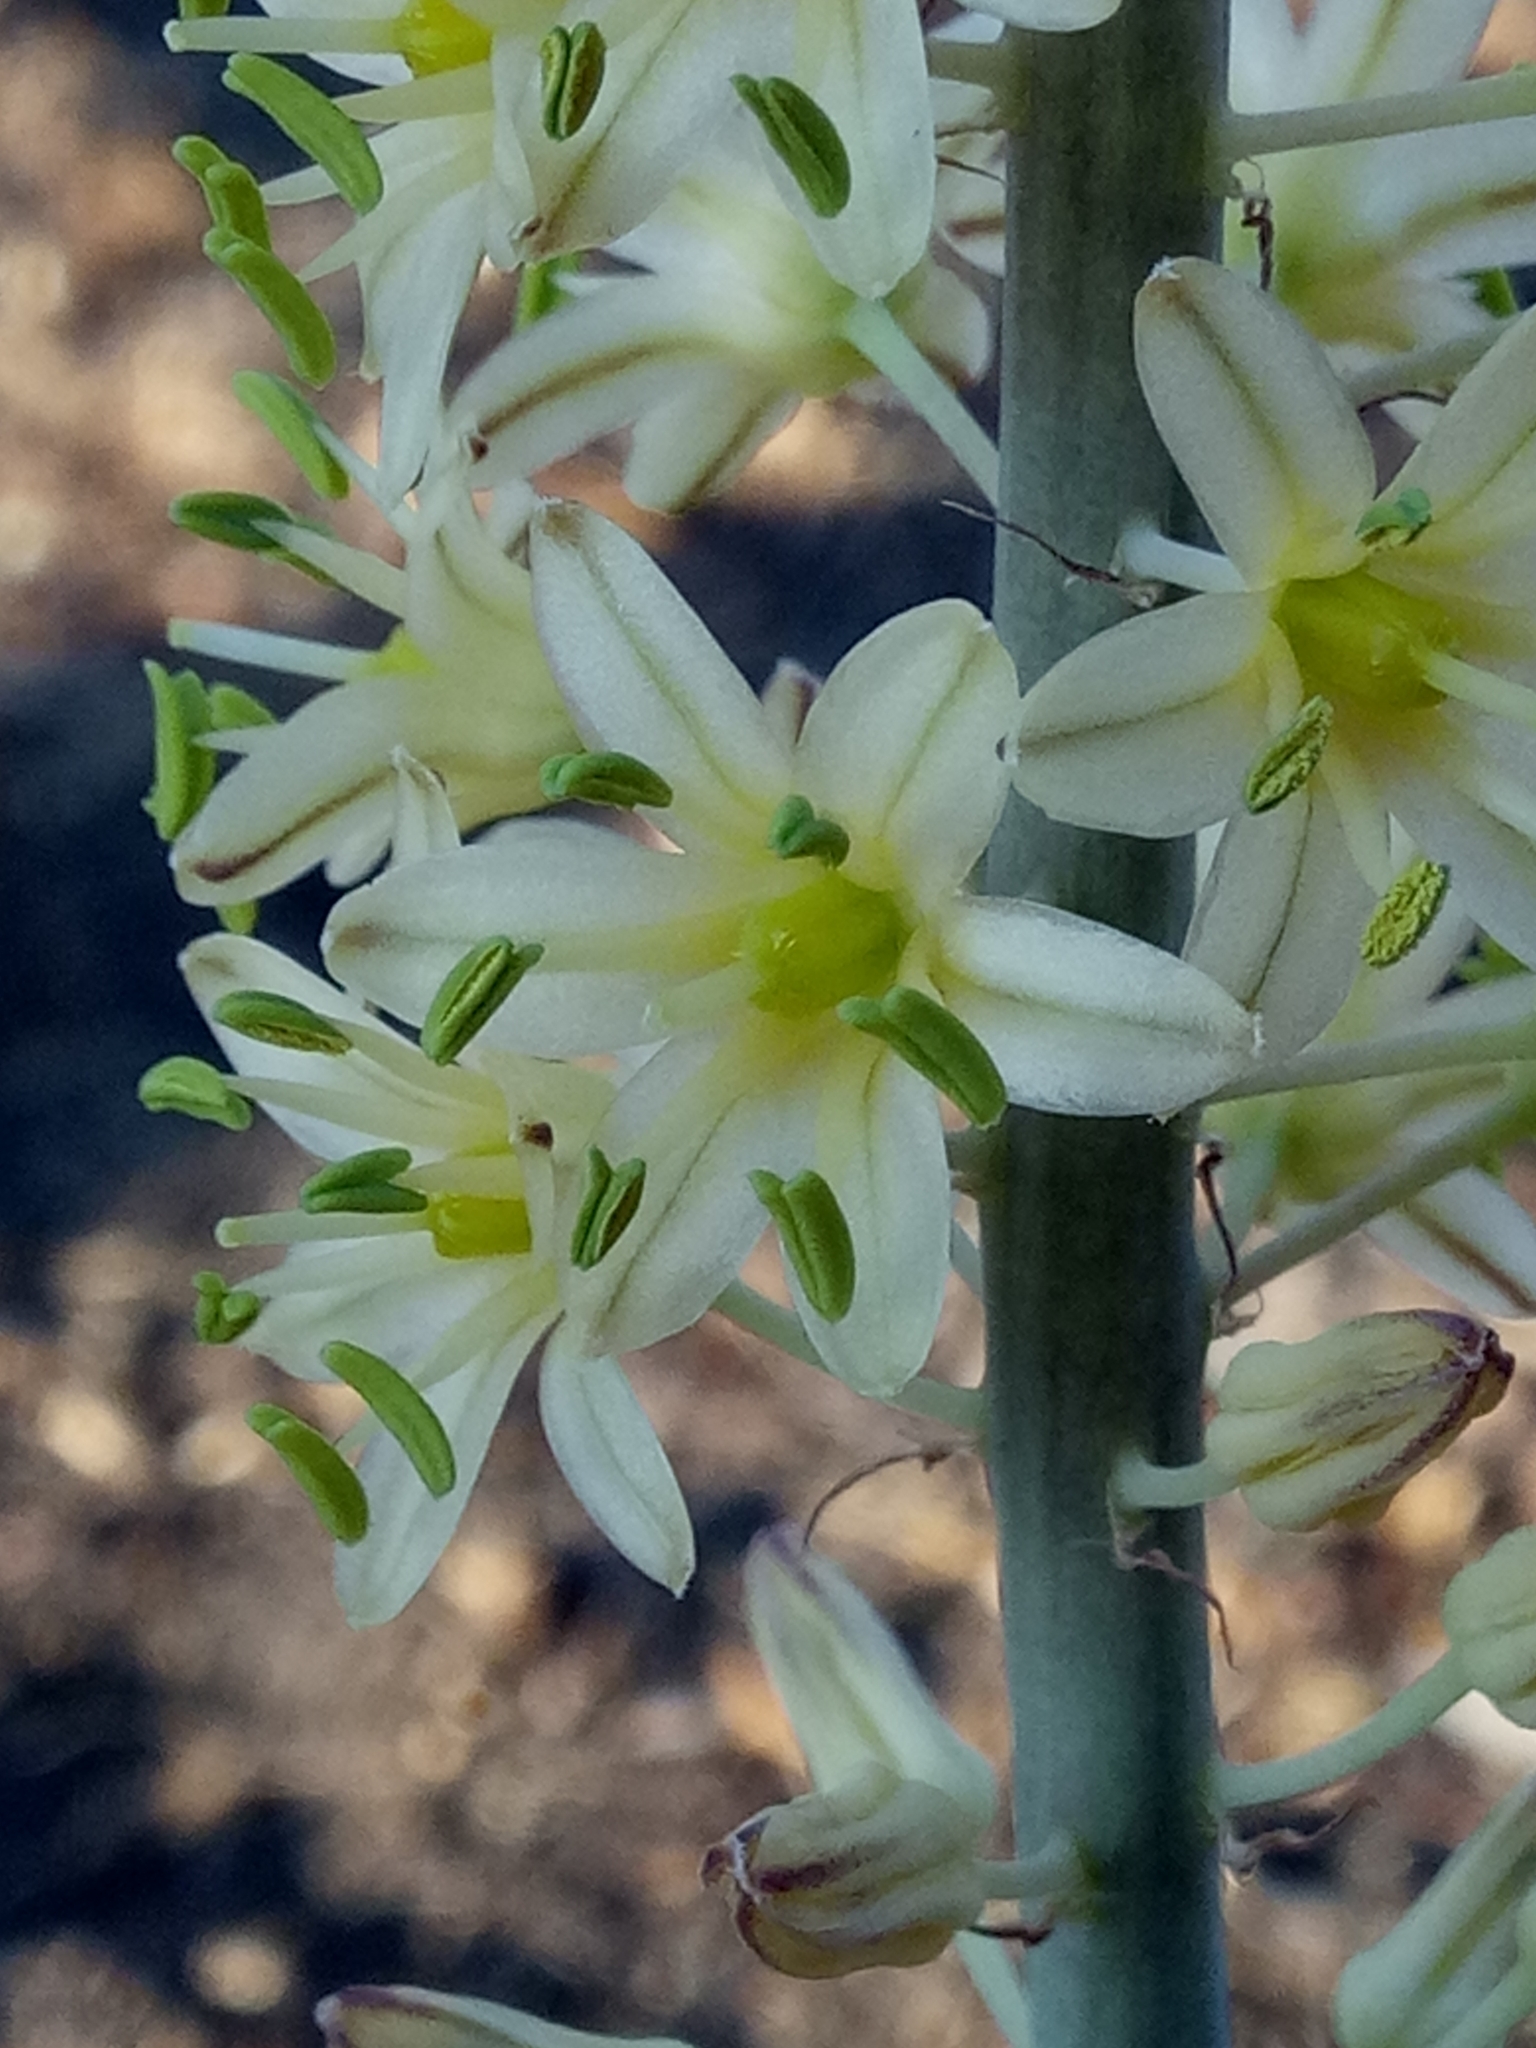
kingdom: Plantae
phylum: Tracheophyta
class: Liliopsida
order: Asparagales
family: Asparagaceae
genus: Drimia
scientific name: Drimia anthericoides
